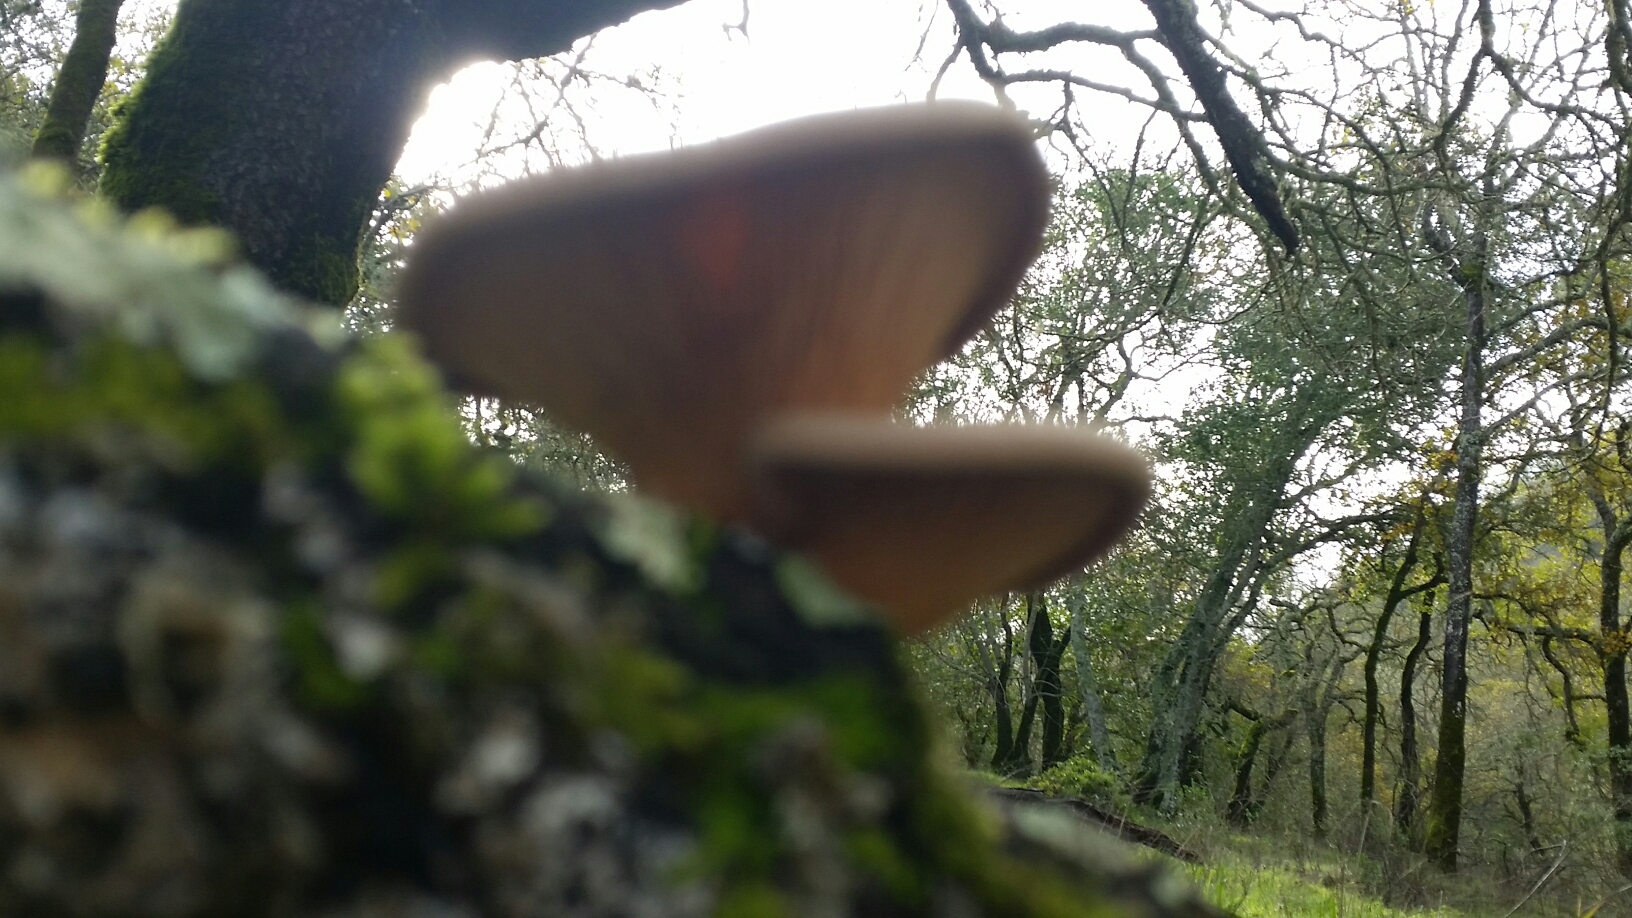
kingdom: Fungi
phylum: Basidiomycota
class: Agaricomycetes
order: Polyporales
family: Panaceae
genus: Panus
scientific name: Panus conchatus
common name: Lilac oysterling
